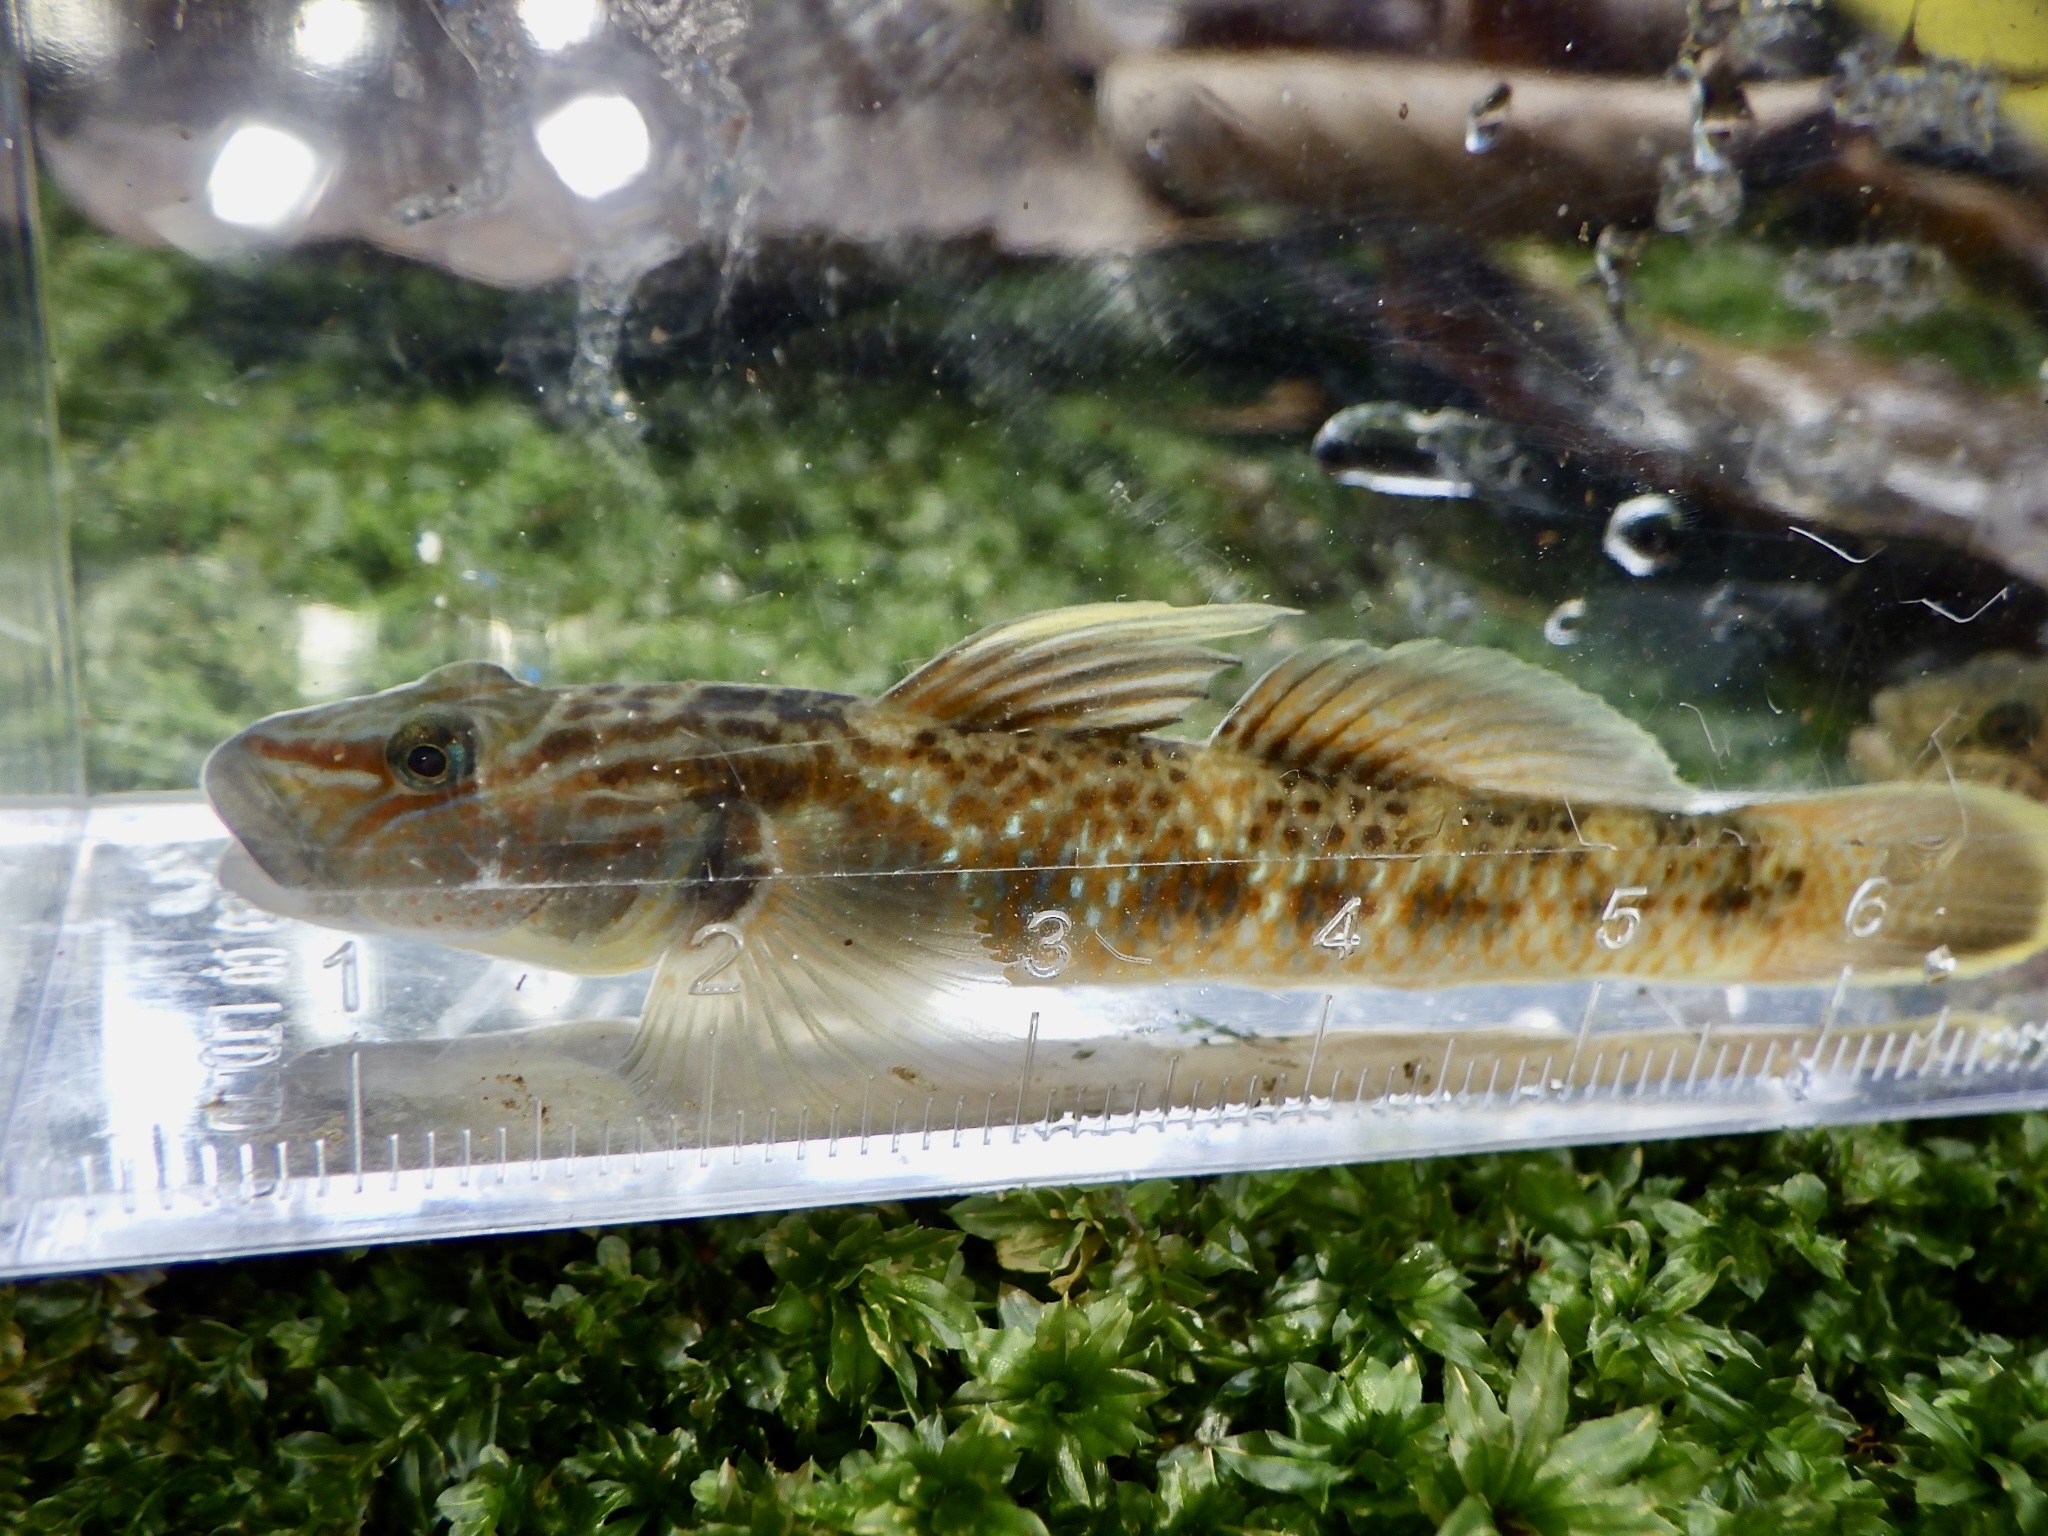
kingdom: Animalia
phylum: Chordata
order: Perciformes
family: Gobiidae
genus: Rhinogobius
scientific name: Rhinogobius brunneus
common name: Amur goby
